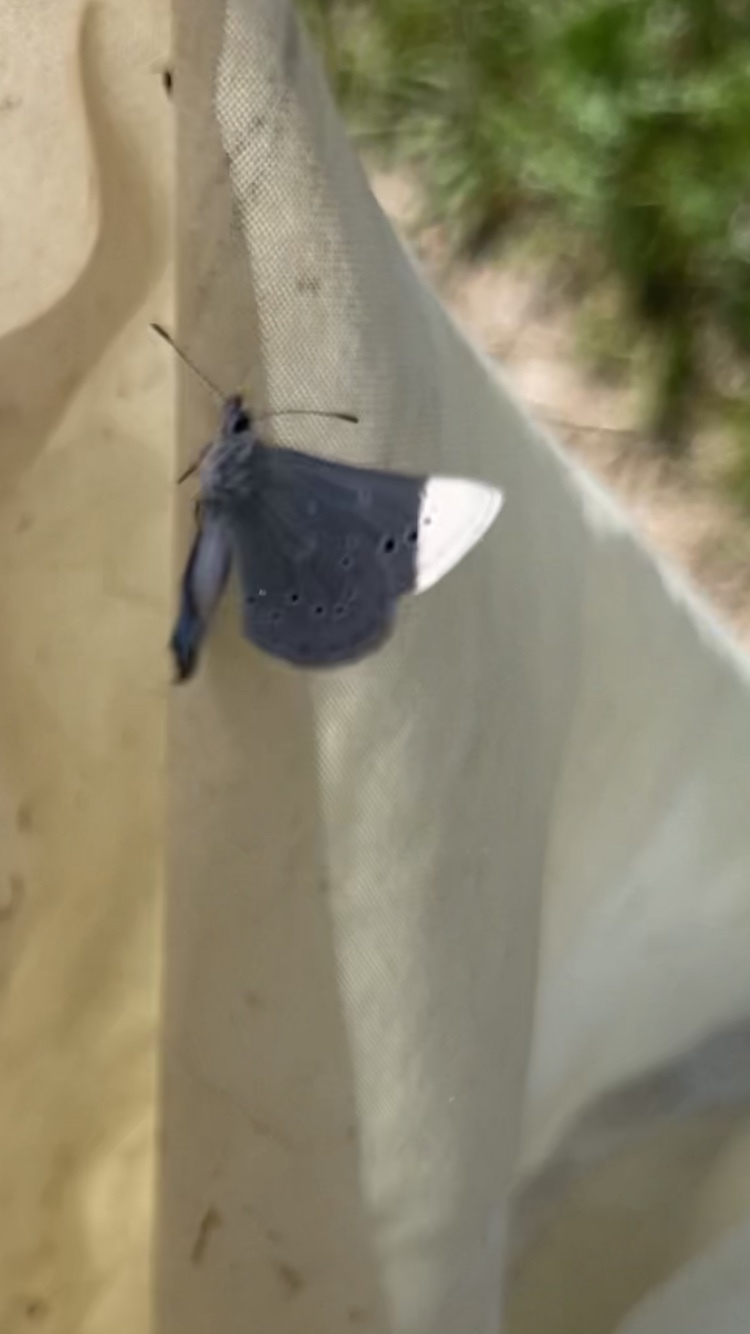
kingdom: Animalia
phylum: Arthropoda
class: Insecta
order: Lepidoptera
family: Lycaenidae
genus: Glaucopsyche
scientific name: Glaucopsyche lygdamus
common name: Silvery blue
